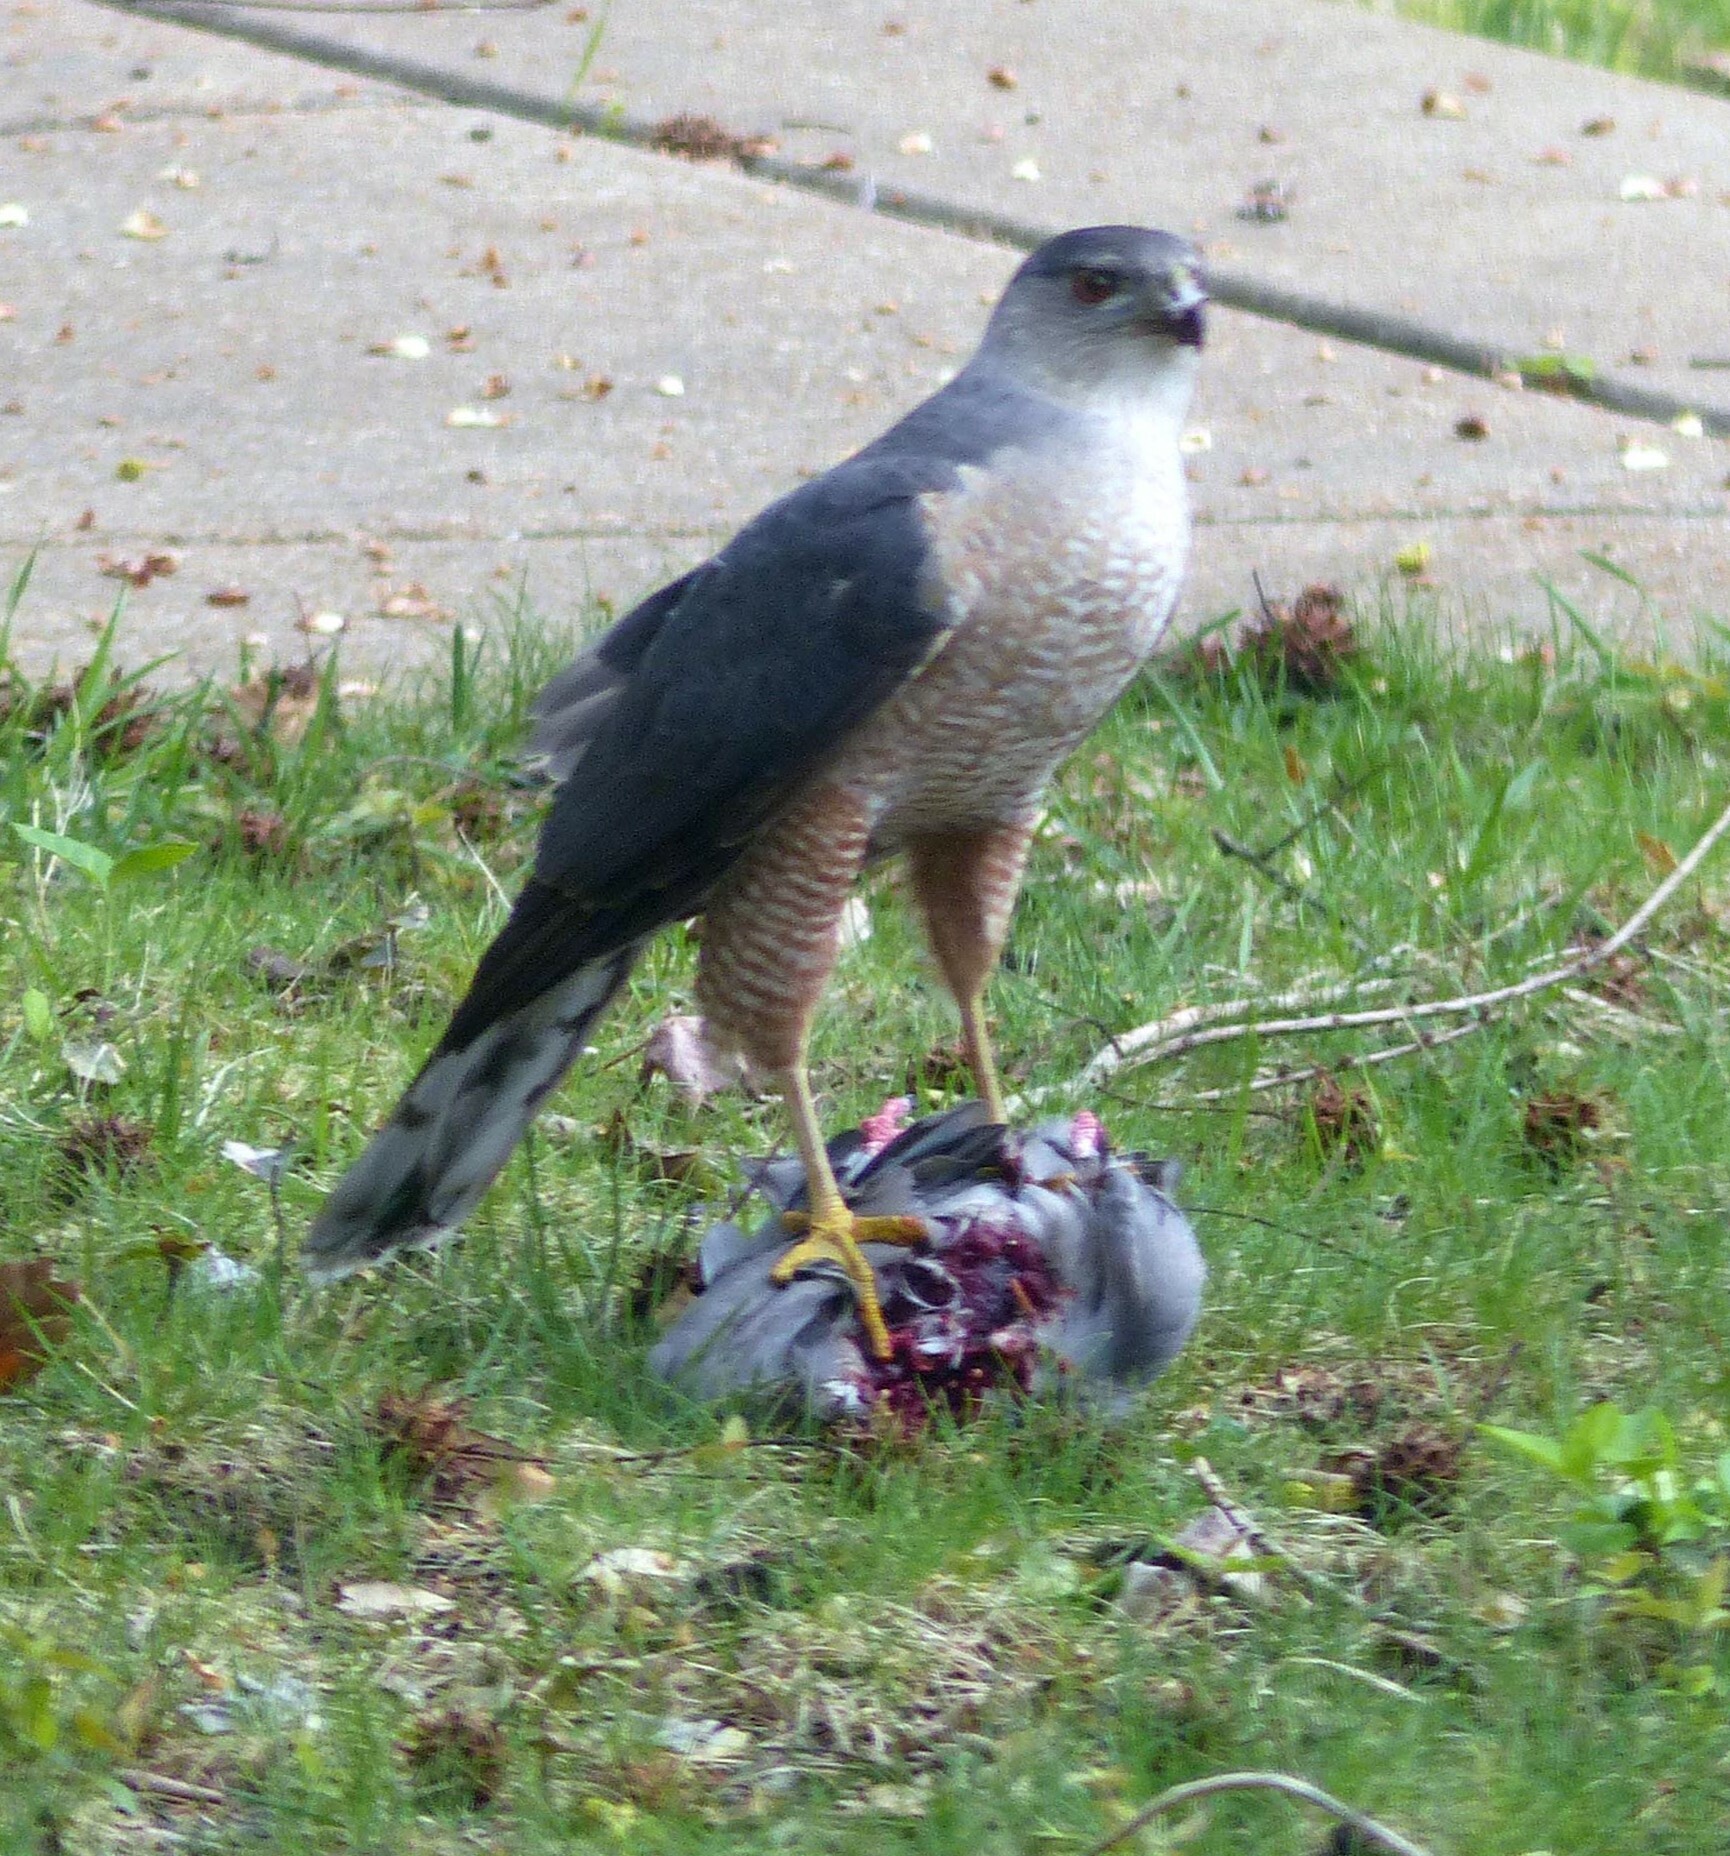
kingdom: Animalia
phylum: Chordata
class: Aves
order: Accipitriformes
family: Accipitridae
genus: Accipiter
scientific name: Accipiter cooperii
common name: Cooper's hawk
